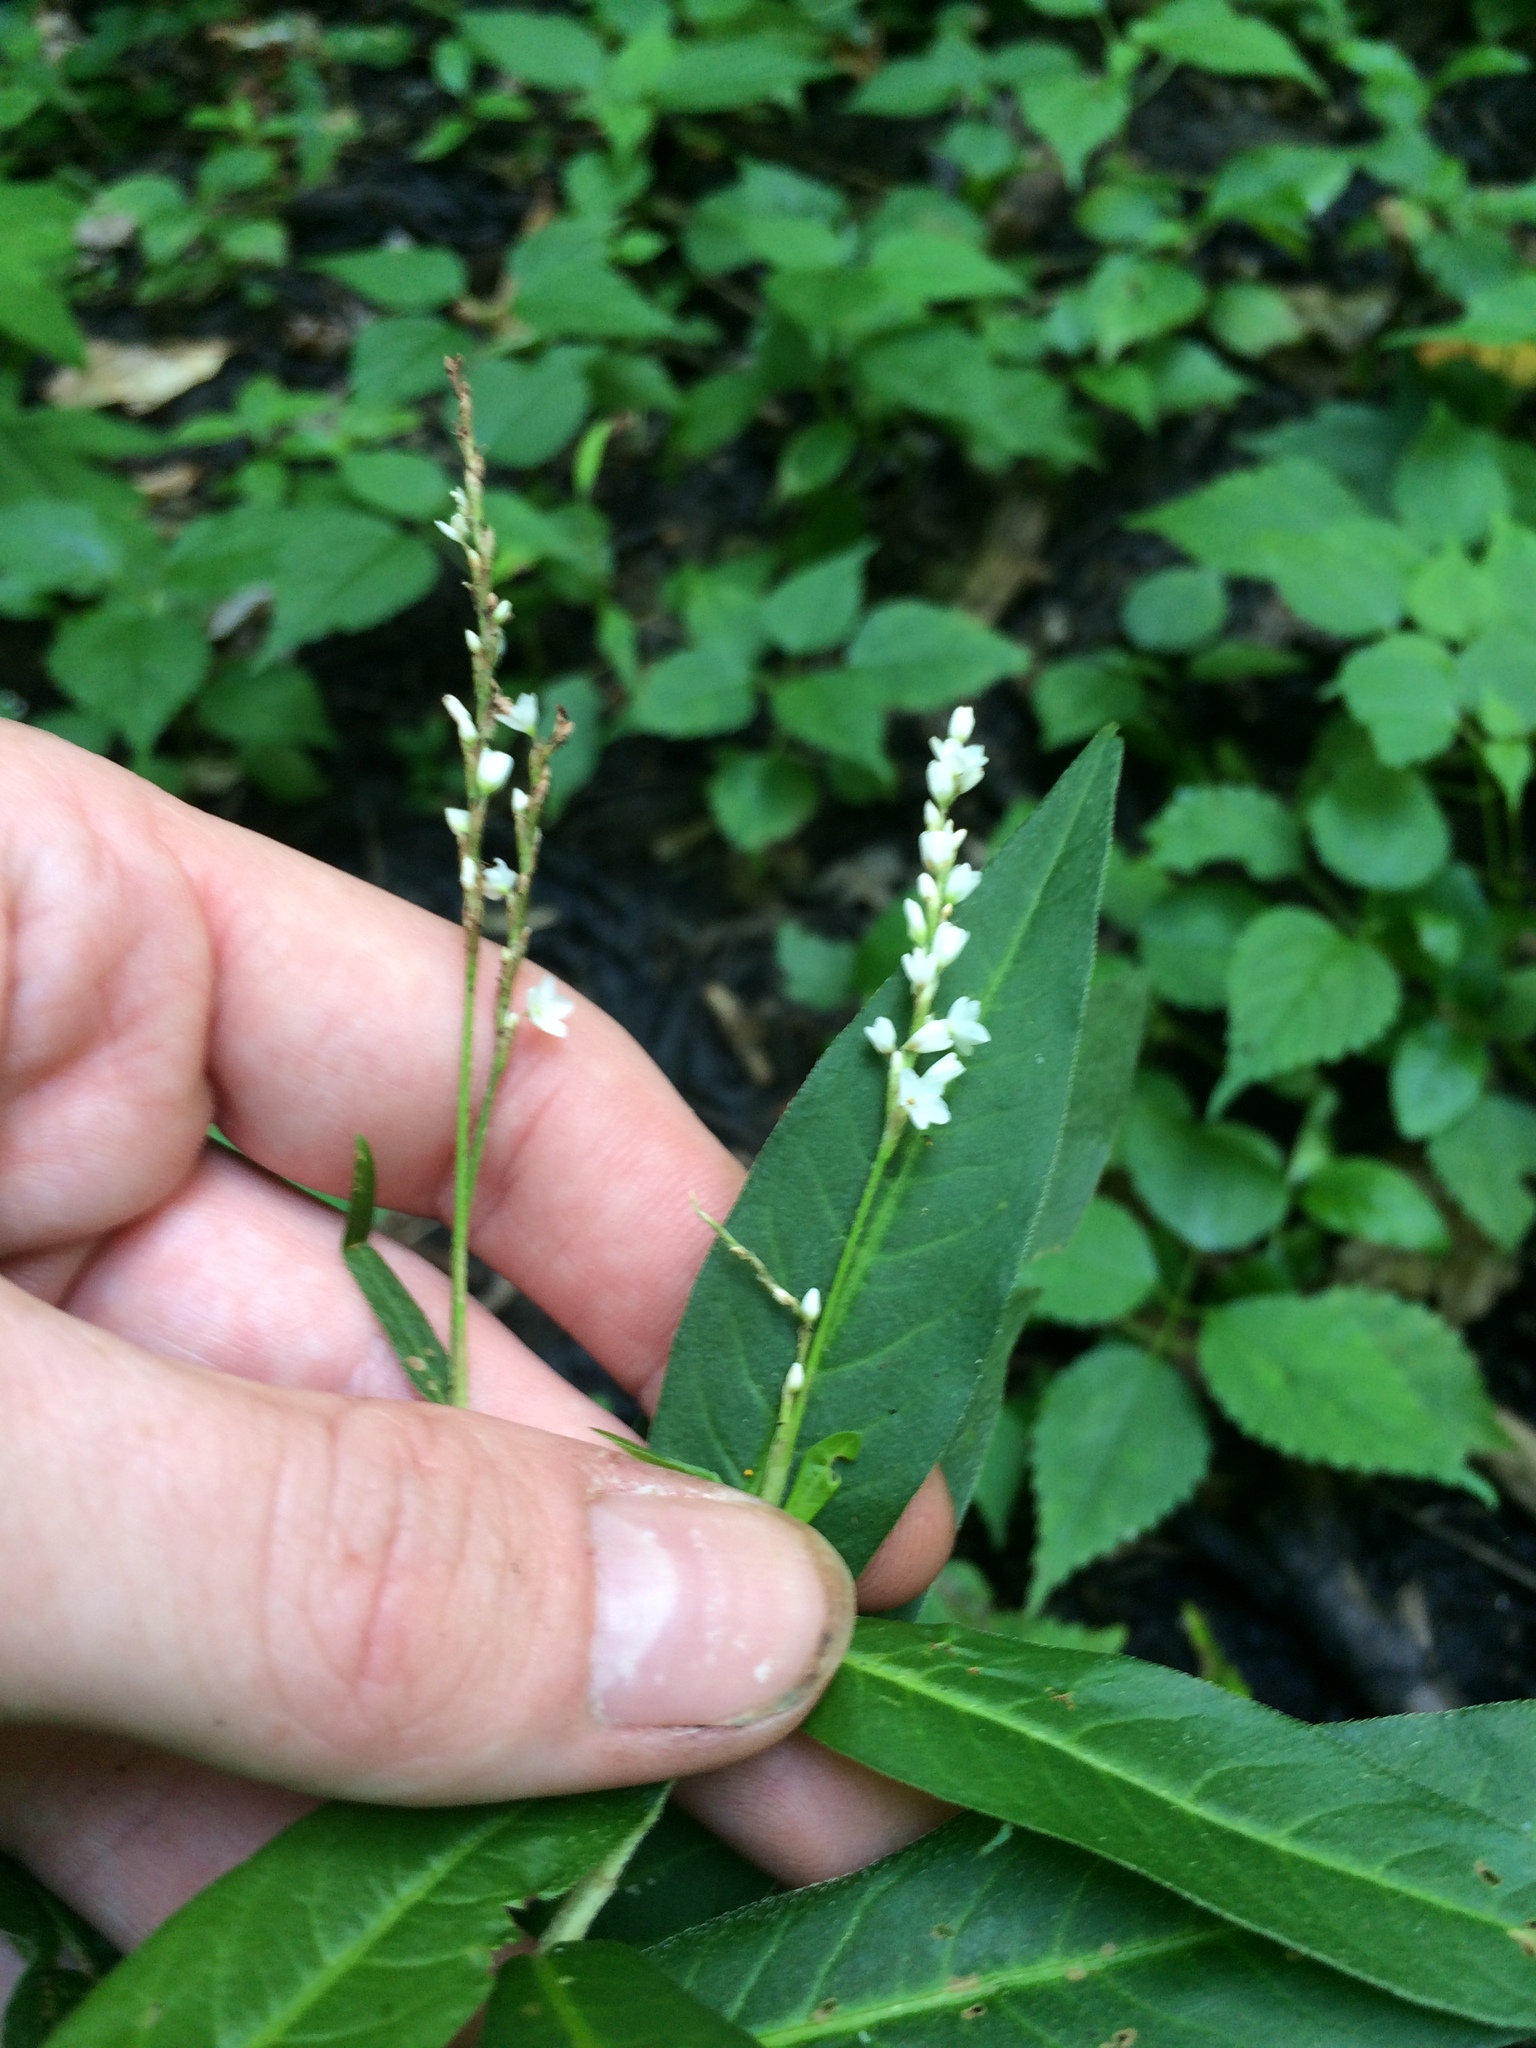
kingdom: Plantae
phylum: Tracheophyta
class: Magnoliopsida
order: Caryophyllales
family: Polygonaceae
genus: Persicaria
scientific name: Persicaria hydropiperoides
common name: Swamp smartweed
